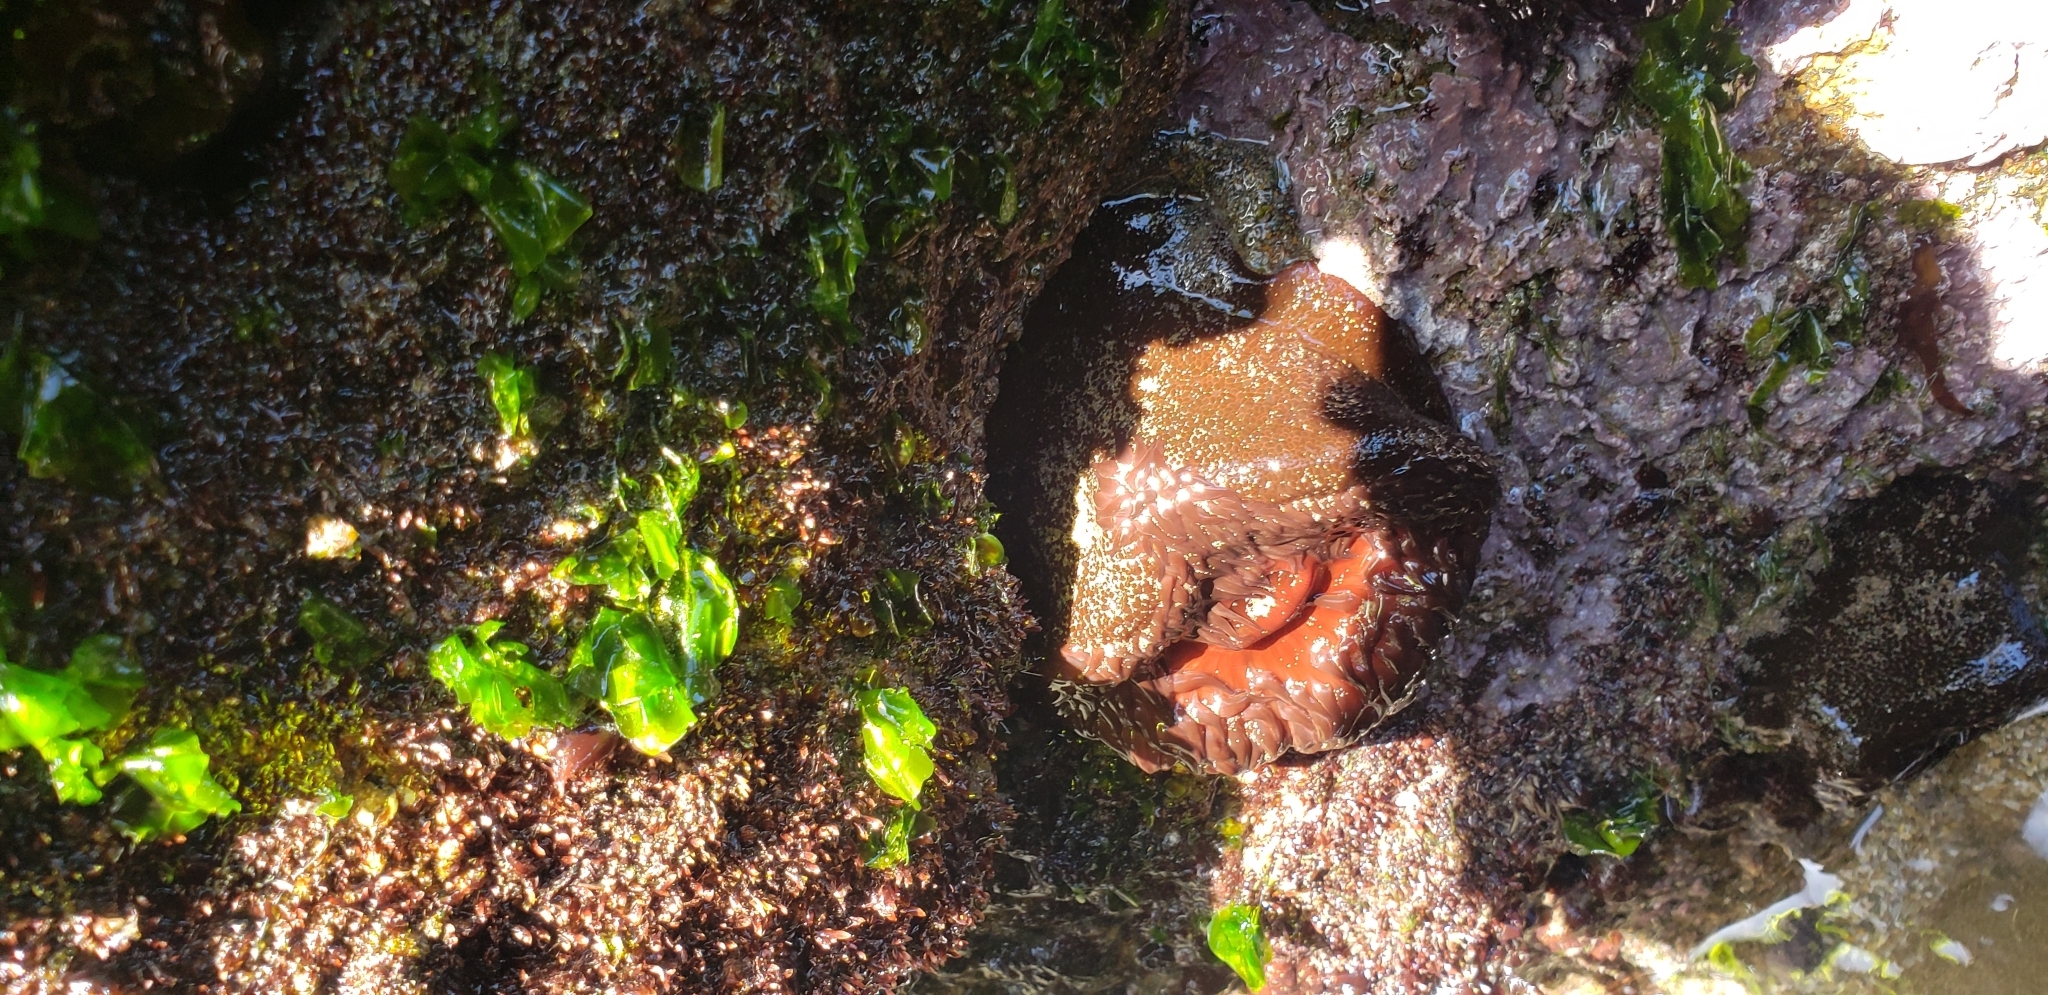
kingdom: Animalia
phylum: Cnidaria
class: Anthozoa
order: Actiniaria
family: Actiniidae
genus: Phymactis
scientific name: Phymactis papillosa
